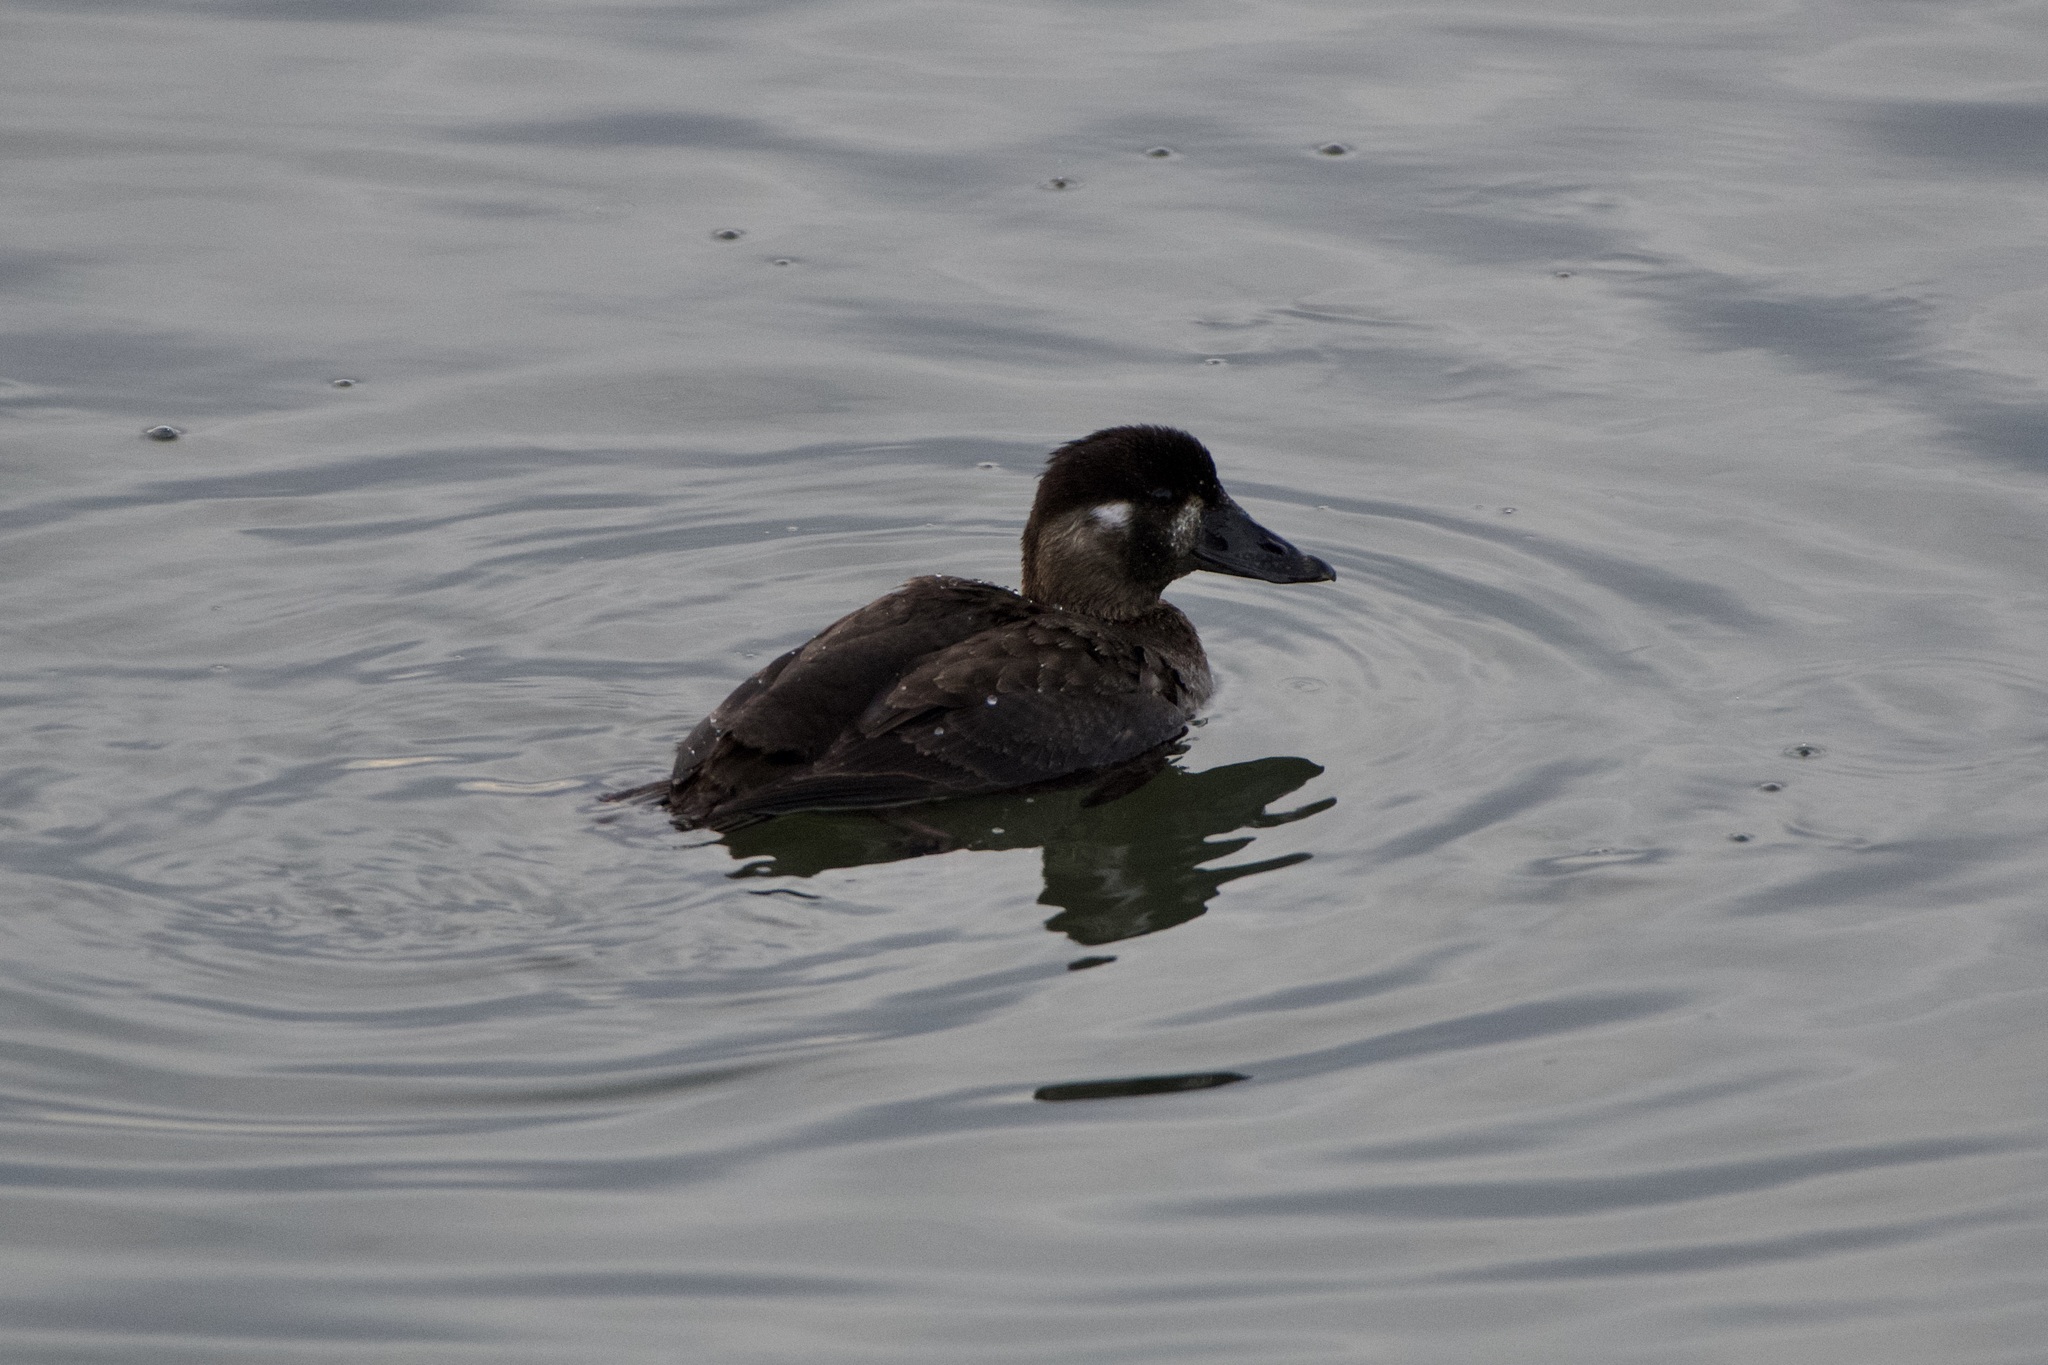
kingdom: Animalia
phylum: Chordata
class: Aves
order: Anseriformes
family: Anatidae
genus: Melanitta
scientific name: Melanitta perspicillata
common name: Surf scoter
